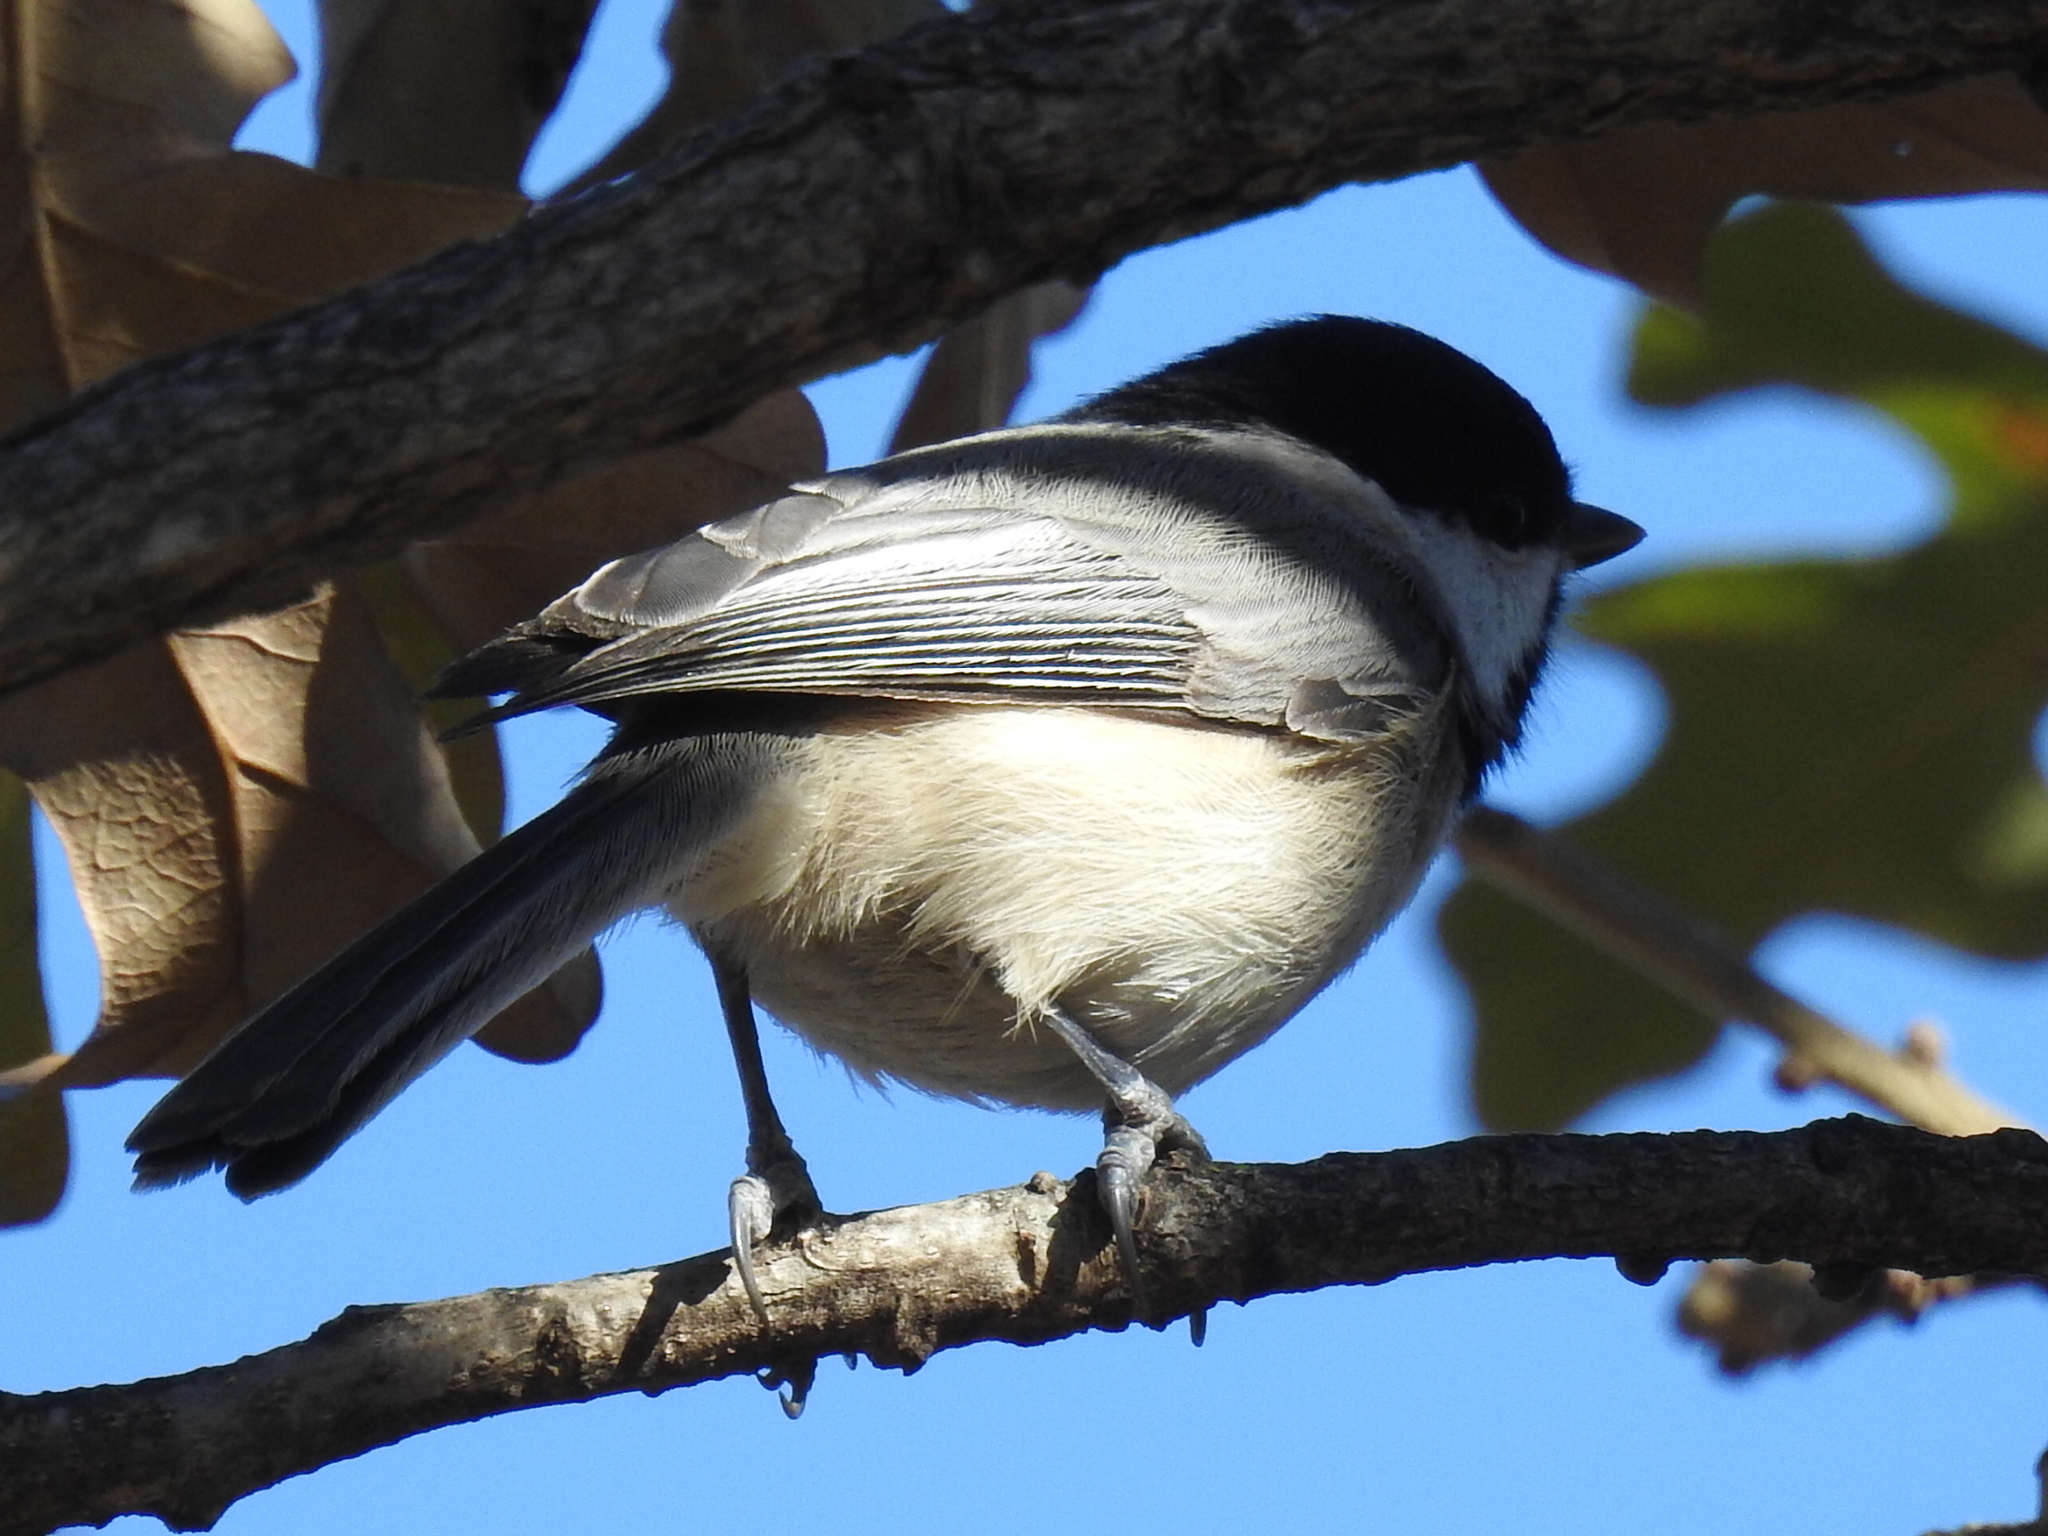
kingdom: Animalia
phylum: Chordata
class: Aves
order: Passeriformes
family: Paridae
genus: Poecile
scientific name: Poecile carolinensis
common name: Carolina chickadee
